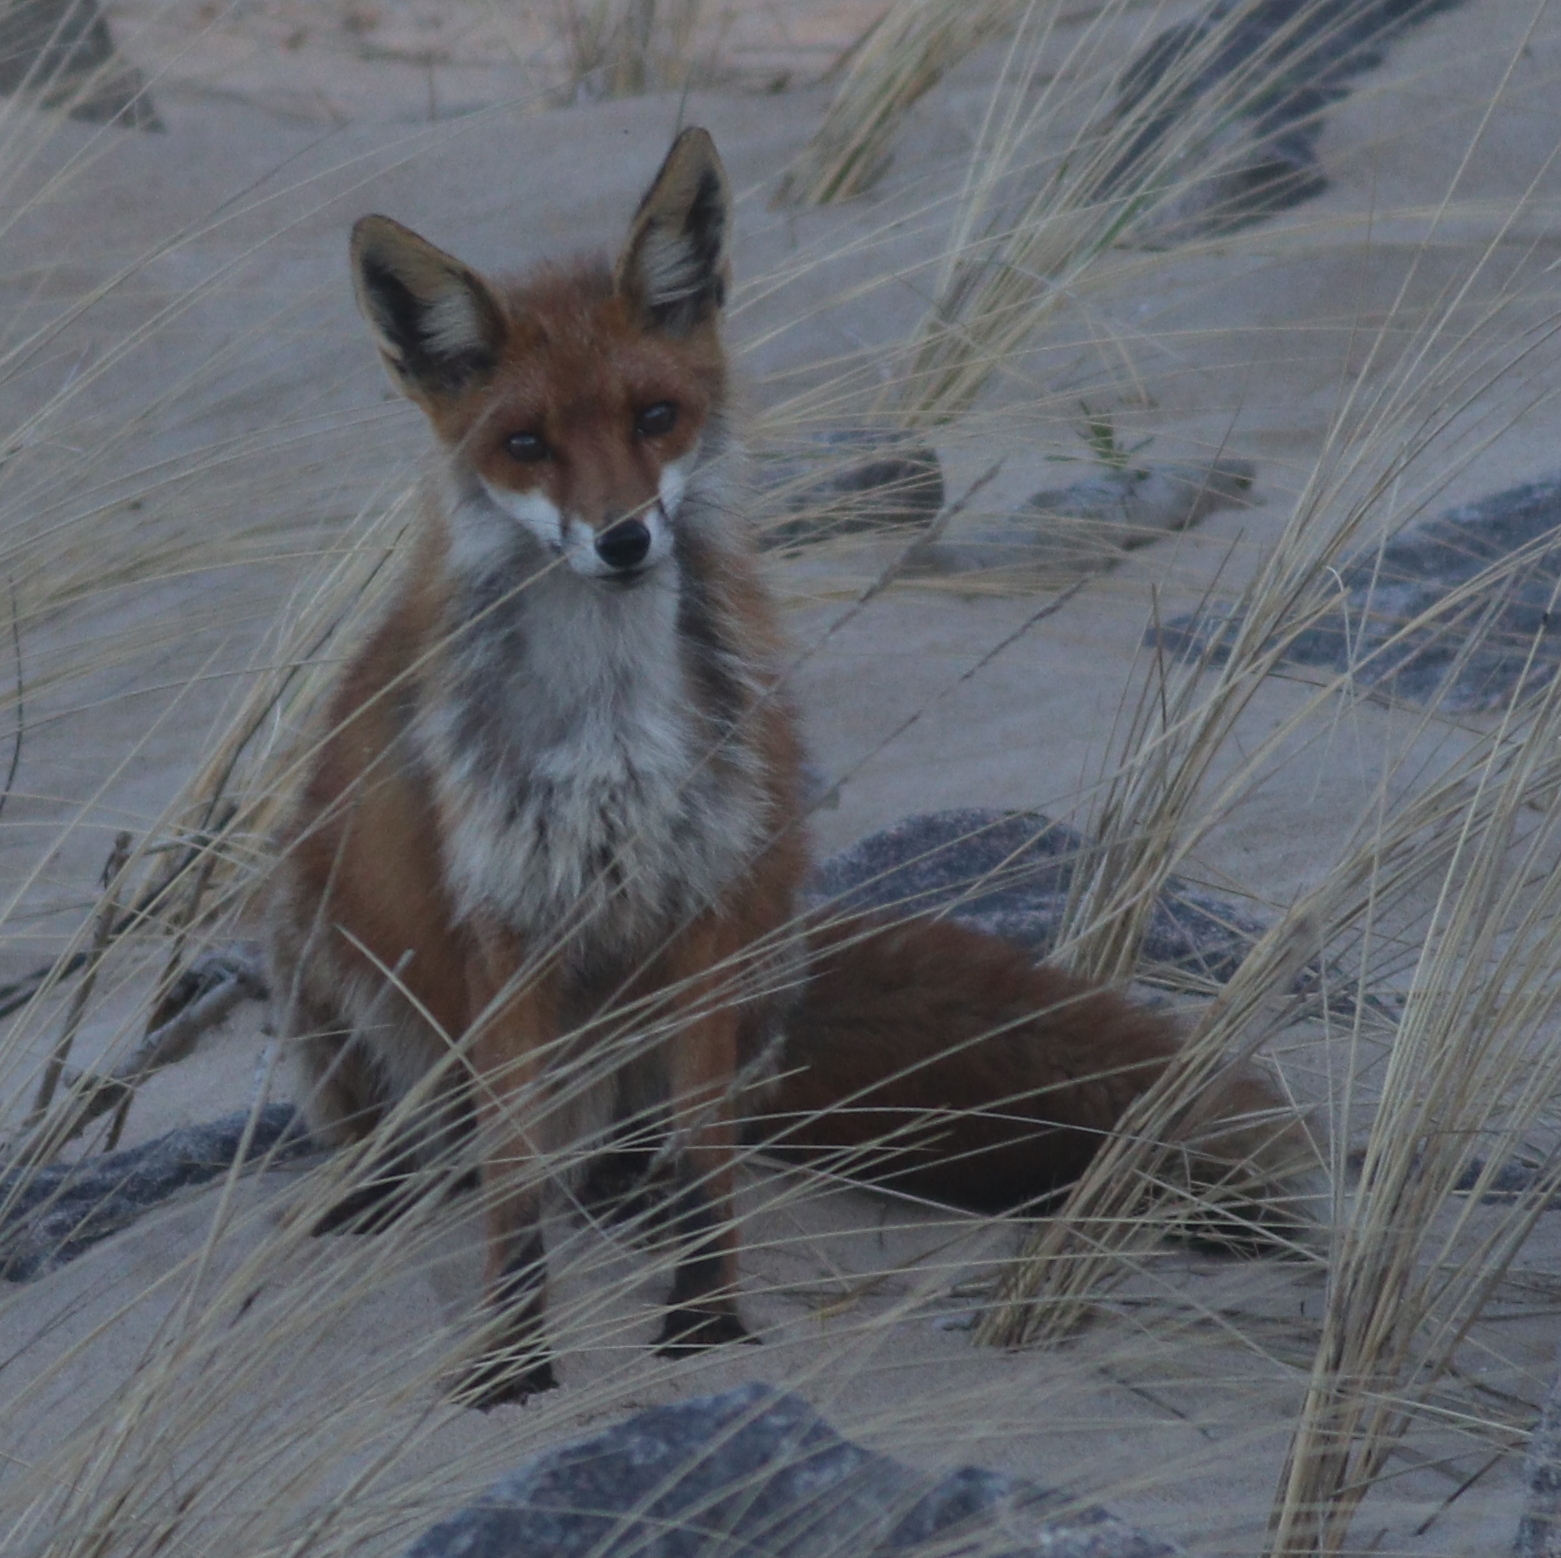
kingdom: Animalia
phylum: Chordata
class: Mammalia
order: Carnivora
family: Canidae
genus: Vulpes
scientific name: Vulpes vulpes
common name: Red fox
